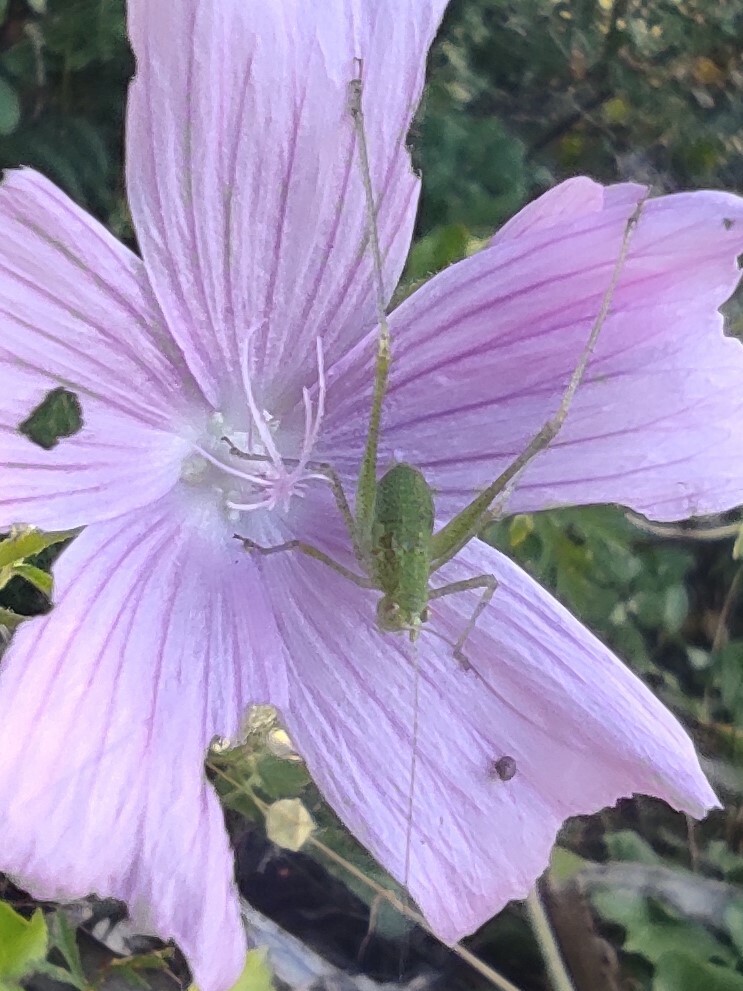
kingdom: Animalia
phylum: Arthropoda
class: Insecta
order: Orthoptera
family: Tettigoniidae
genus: Phaneroptera
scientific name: Phaneroptera nana
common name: Southern sickle bush-cricket
